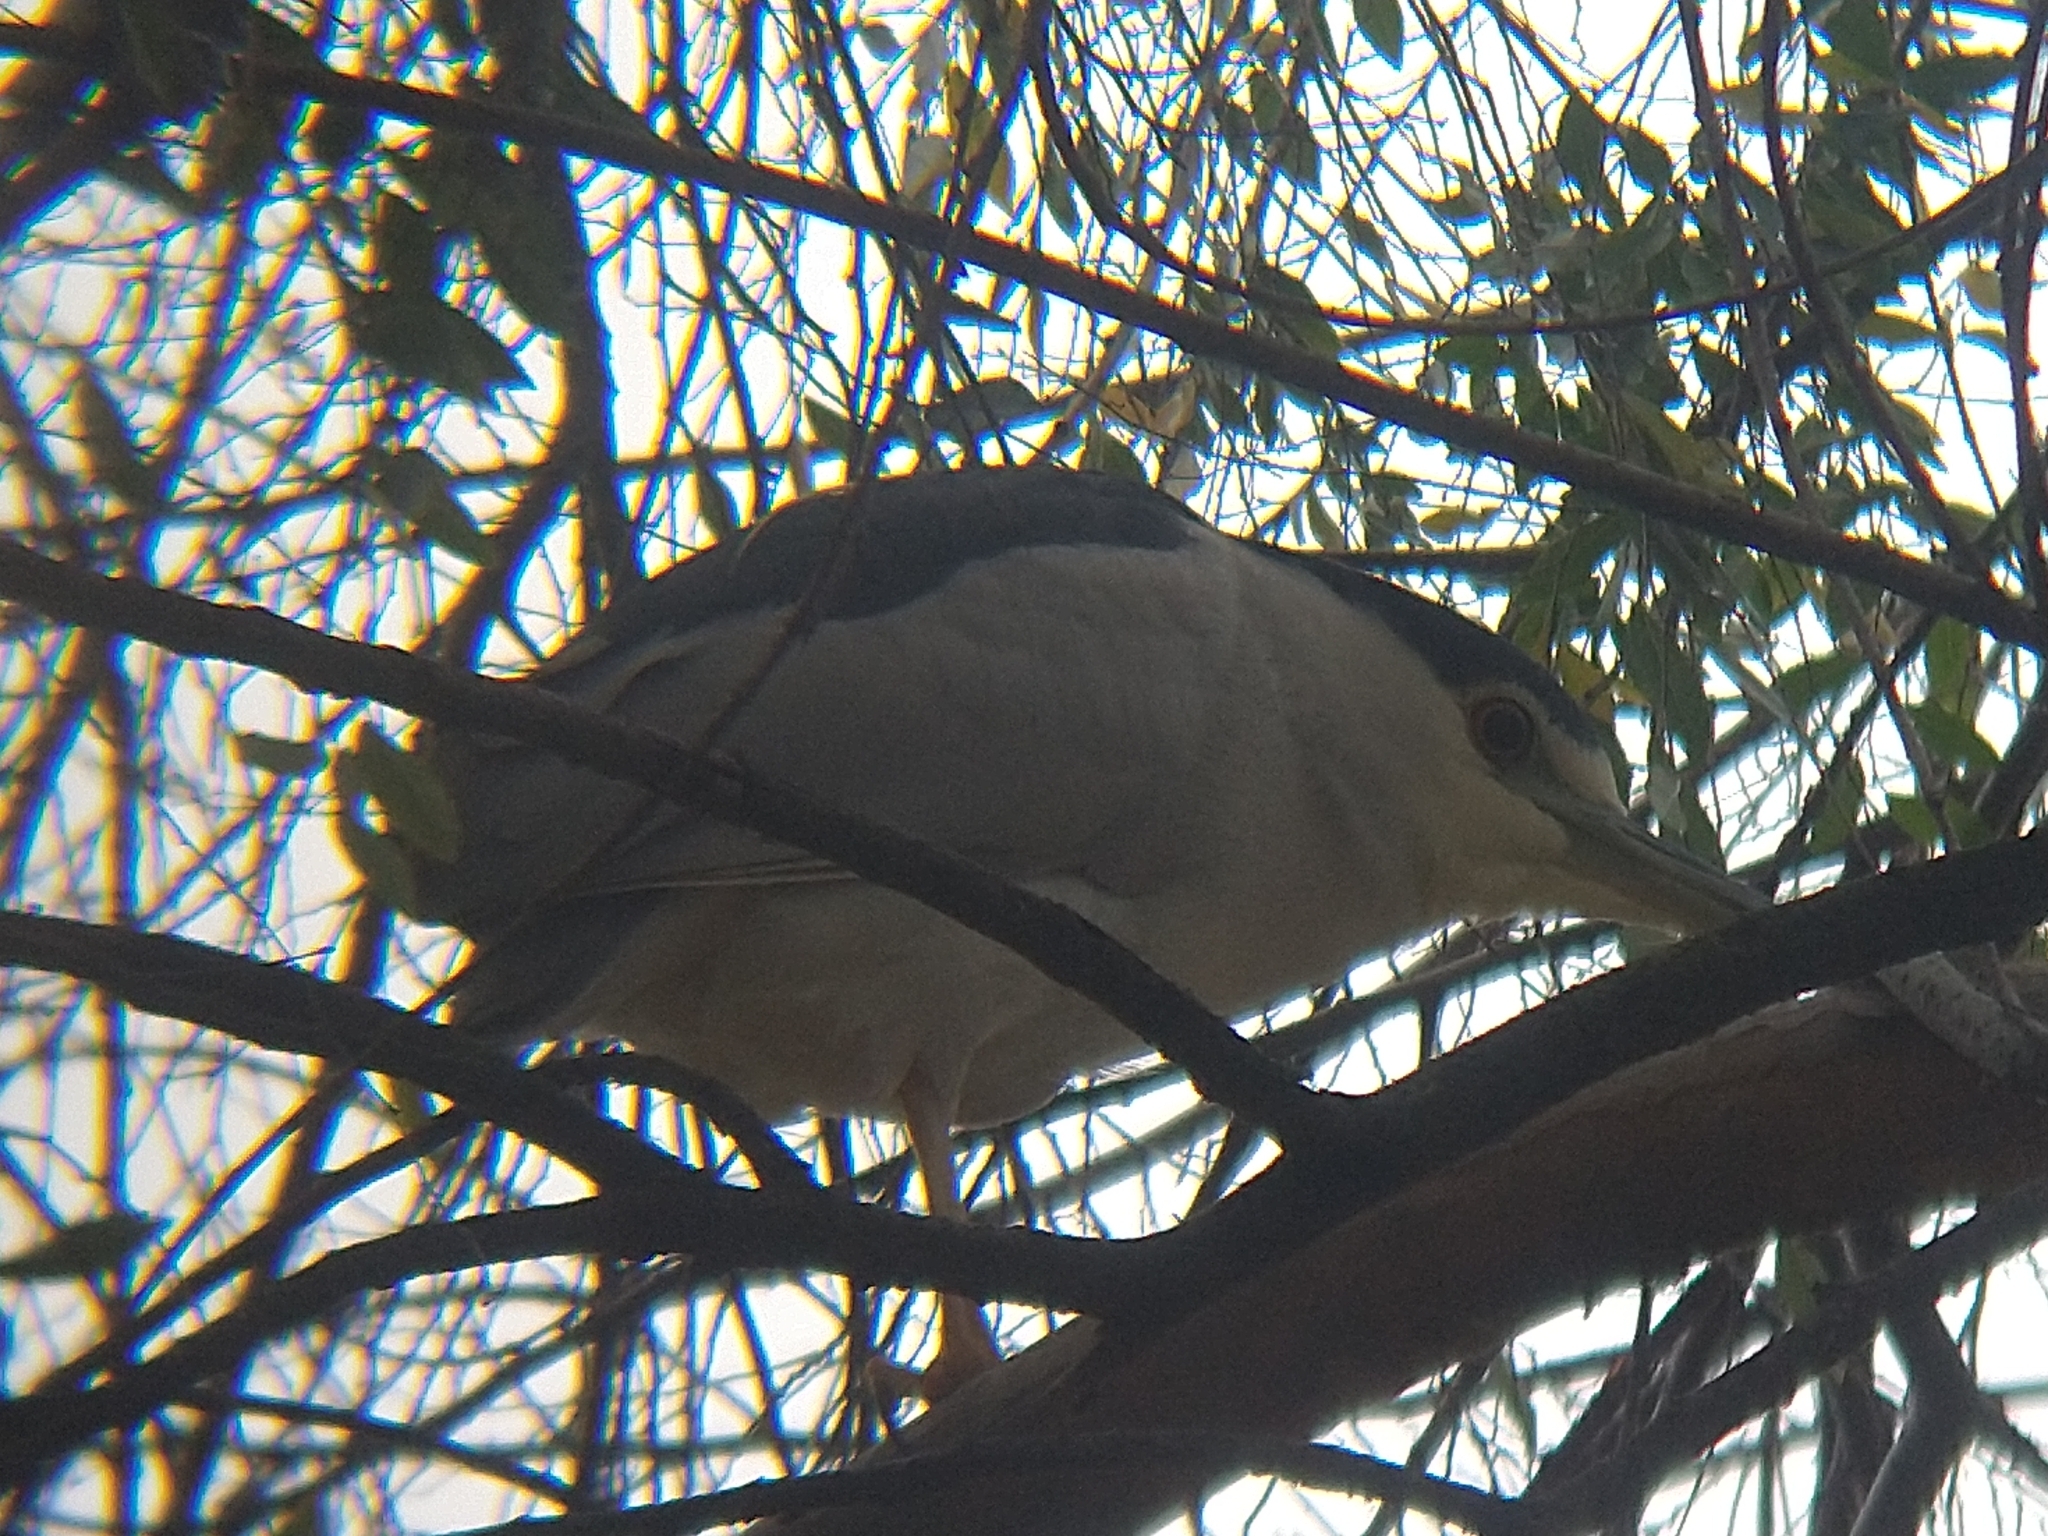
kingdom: Animalia
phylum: Chordata
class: Aves
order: Pelecaniformes
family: Ardeidae
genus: Nycticorax
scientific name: Nycticorax nycticorax
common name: Black-crowned night heron
